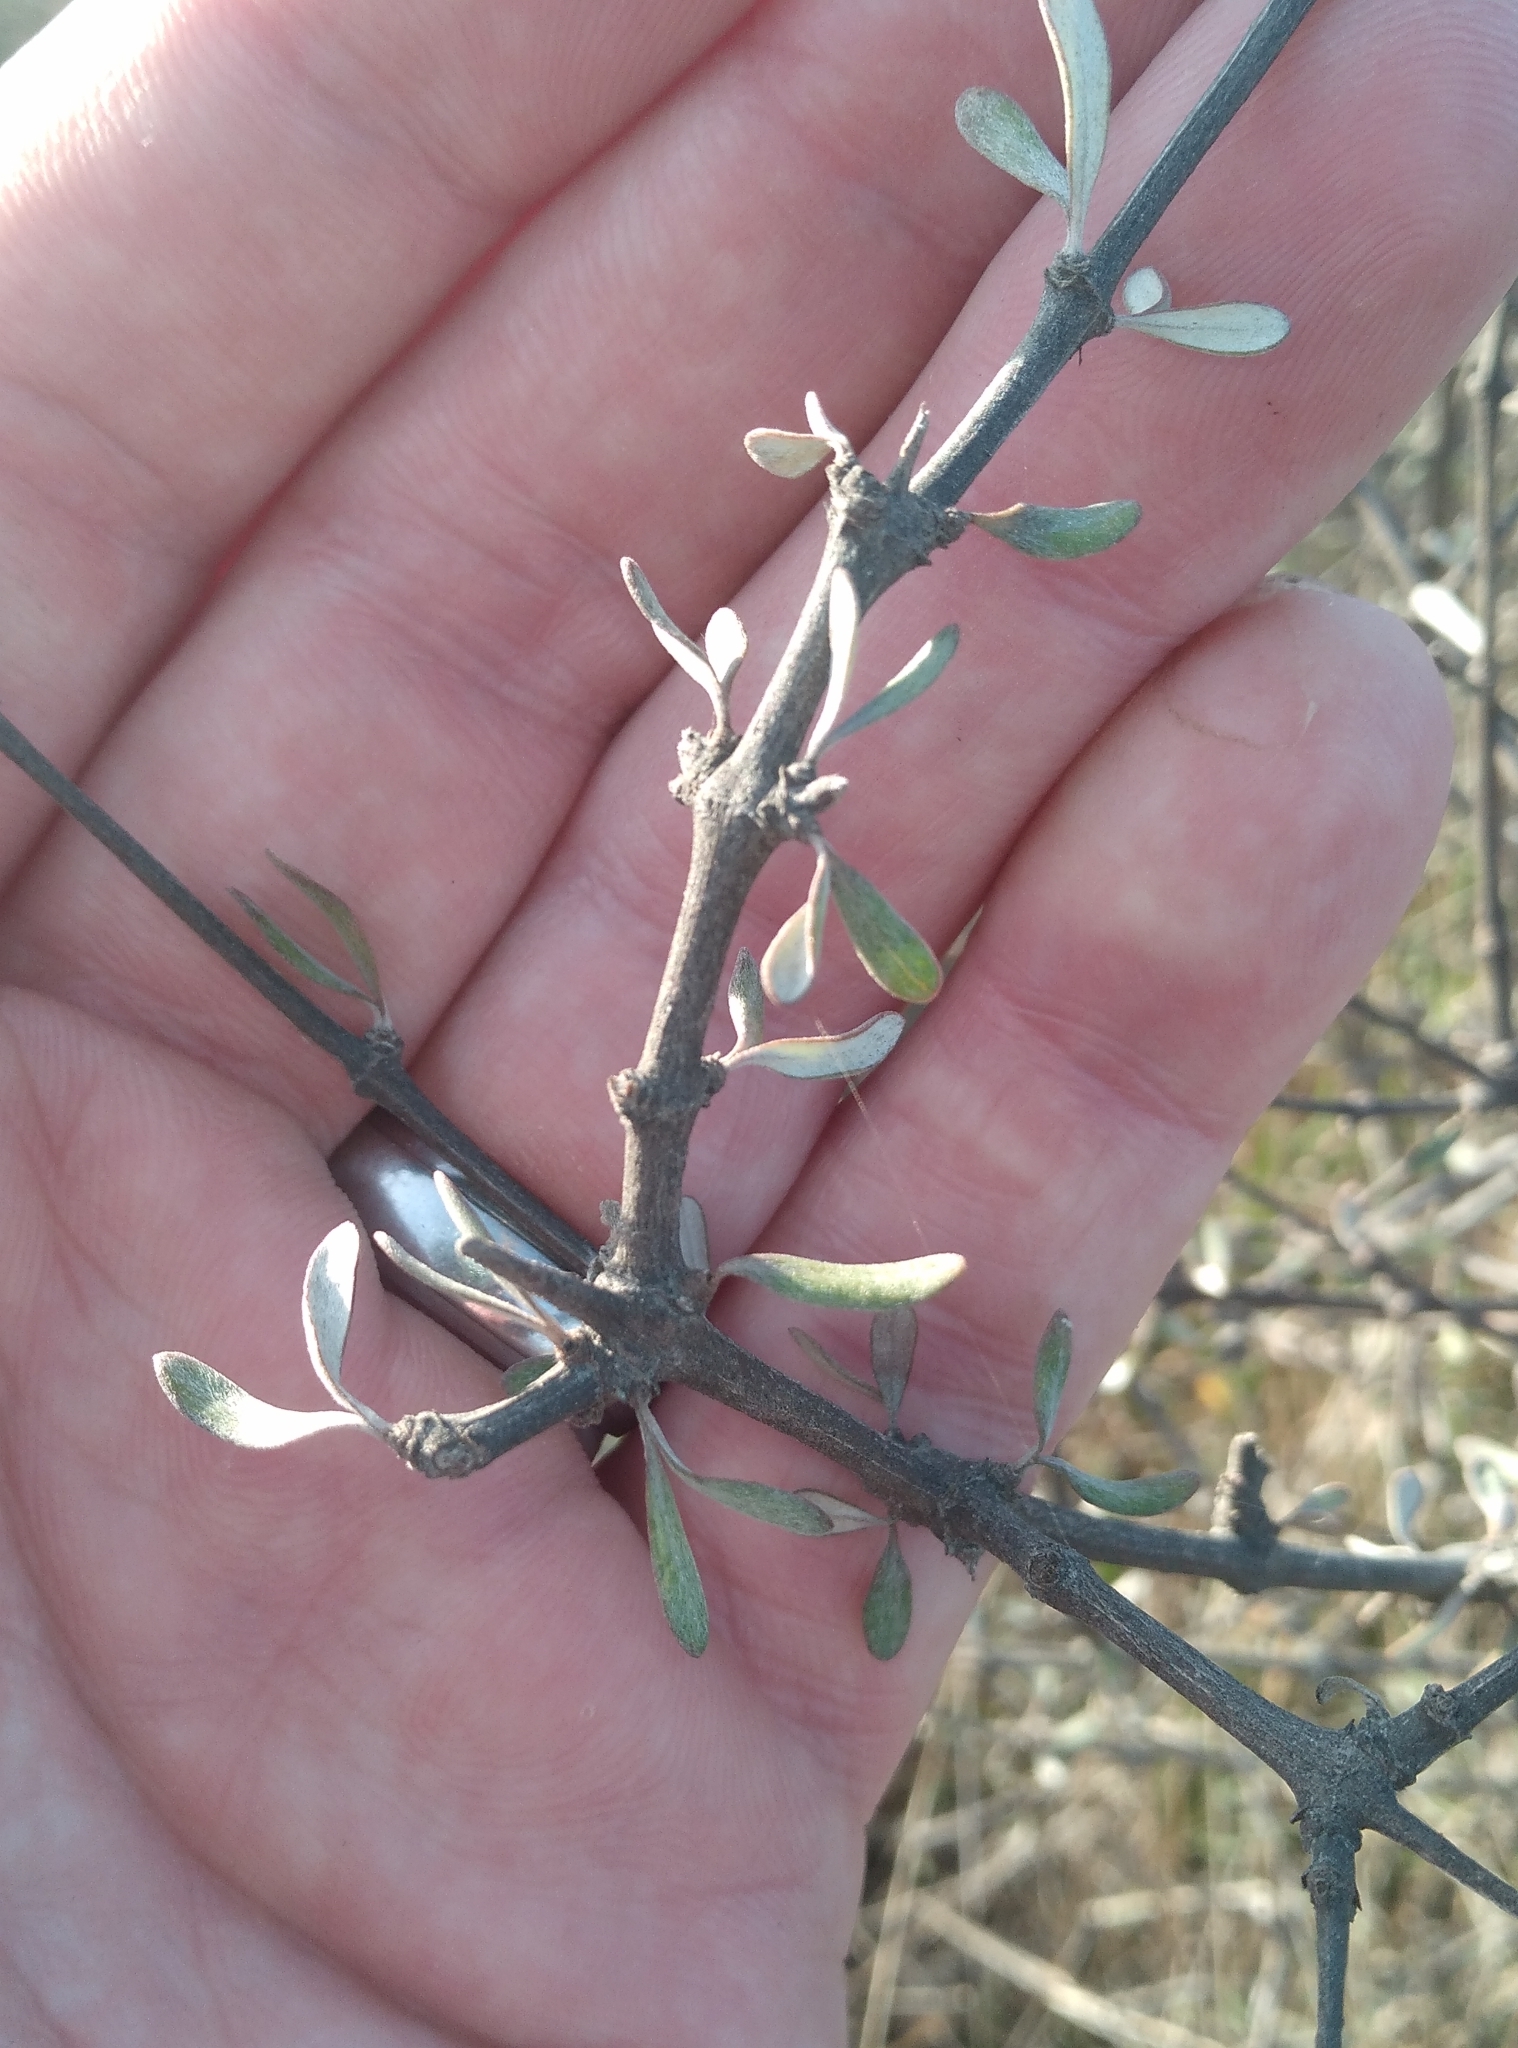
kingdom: Plantae
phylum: Tracheophyta
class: Magnoliopsida
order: Asterales
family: Asteraceae
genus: Olearia
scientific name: Olearia adenocarpa
